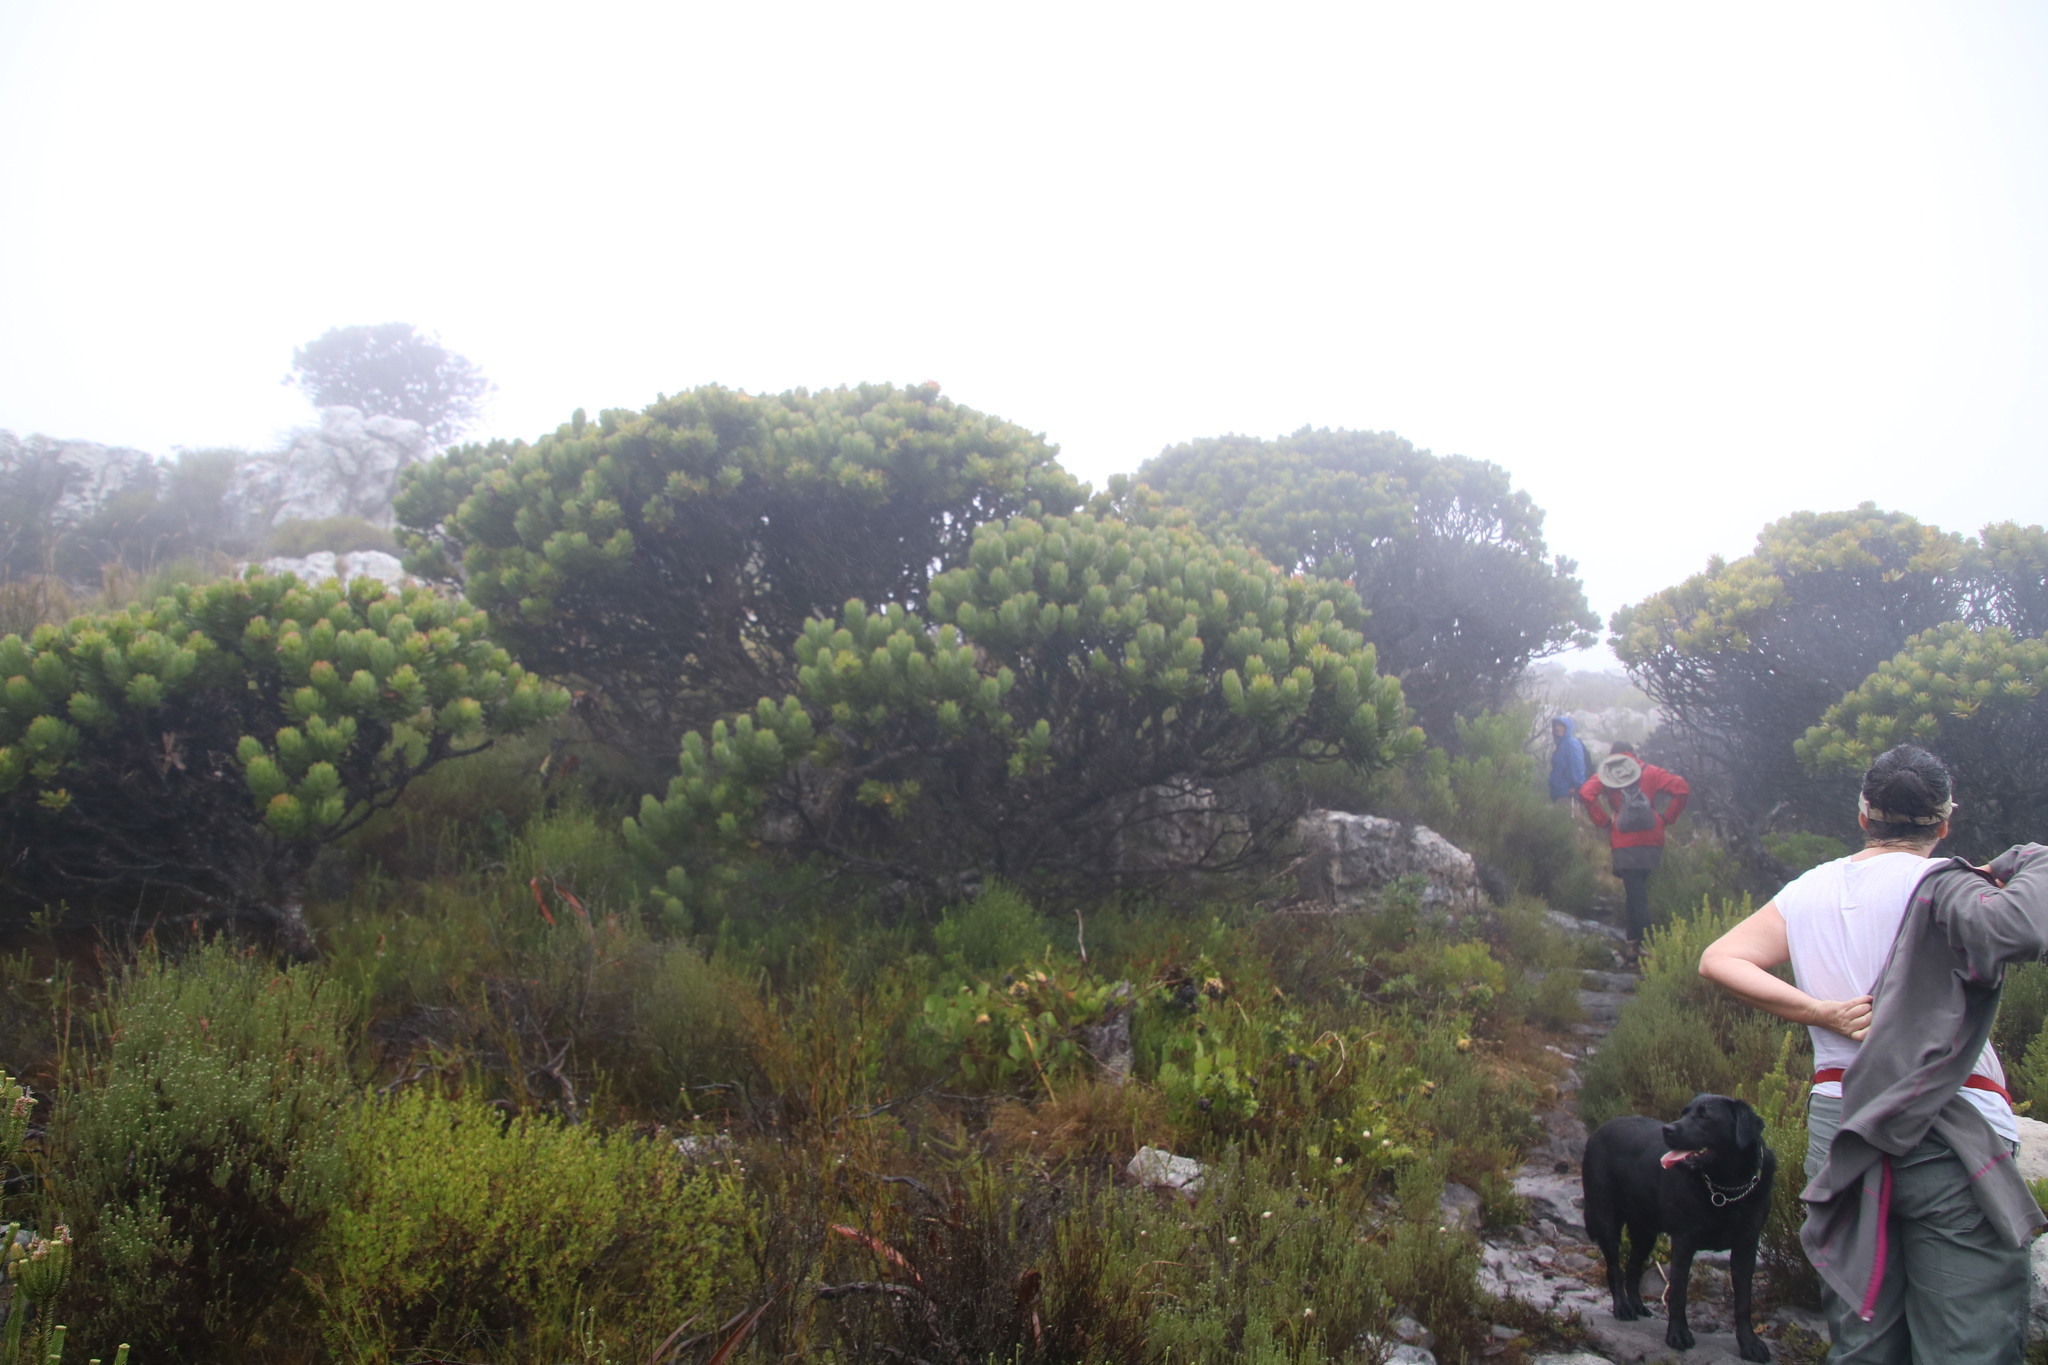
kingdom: Plantae
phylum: Tracheophyta
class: Magnoliopsida
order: Proteales
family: Proteaceae
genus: Mimetes
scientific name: Mimetes fimbriifolius
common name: Fringed bottlebrush
